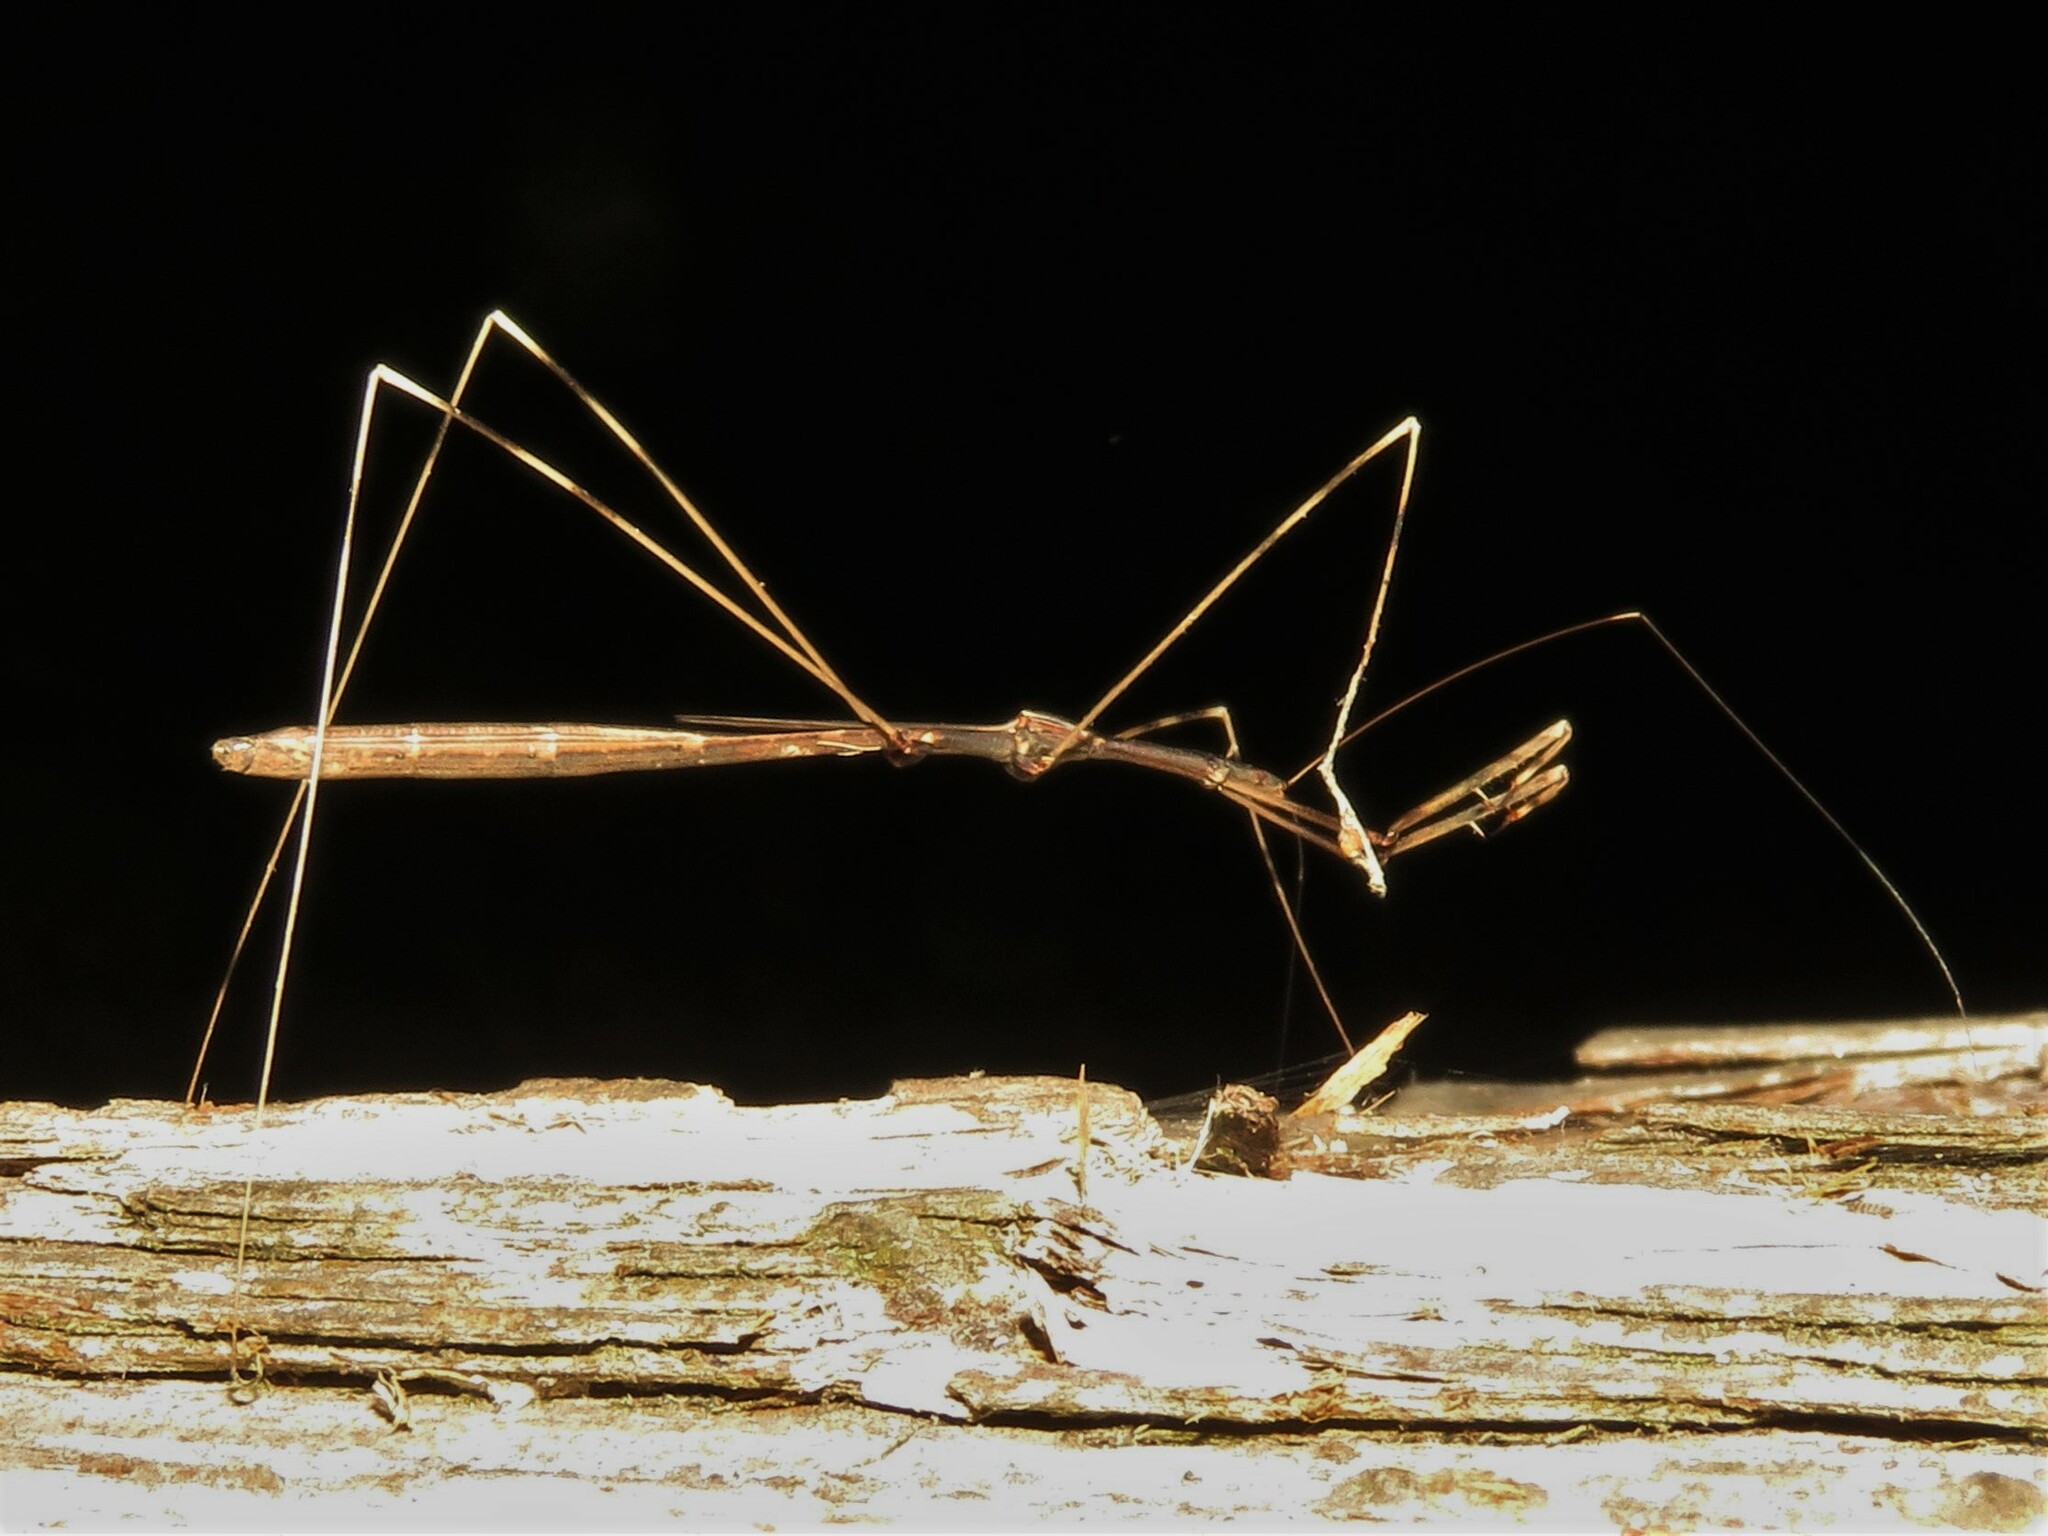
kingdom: Animalia
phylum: Arthropoda
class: Insecta
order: Hemiptera
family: Reduviidae
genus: Emesaya
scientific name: Emesaya brevipennis
